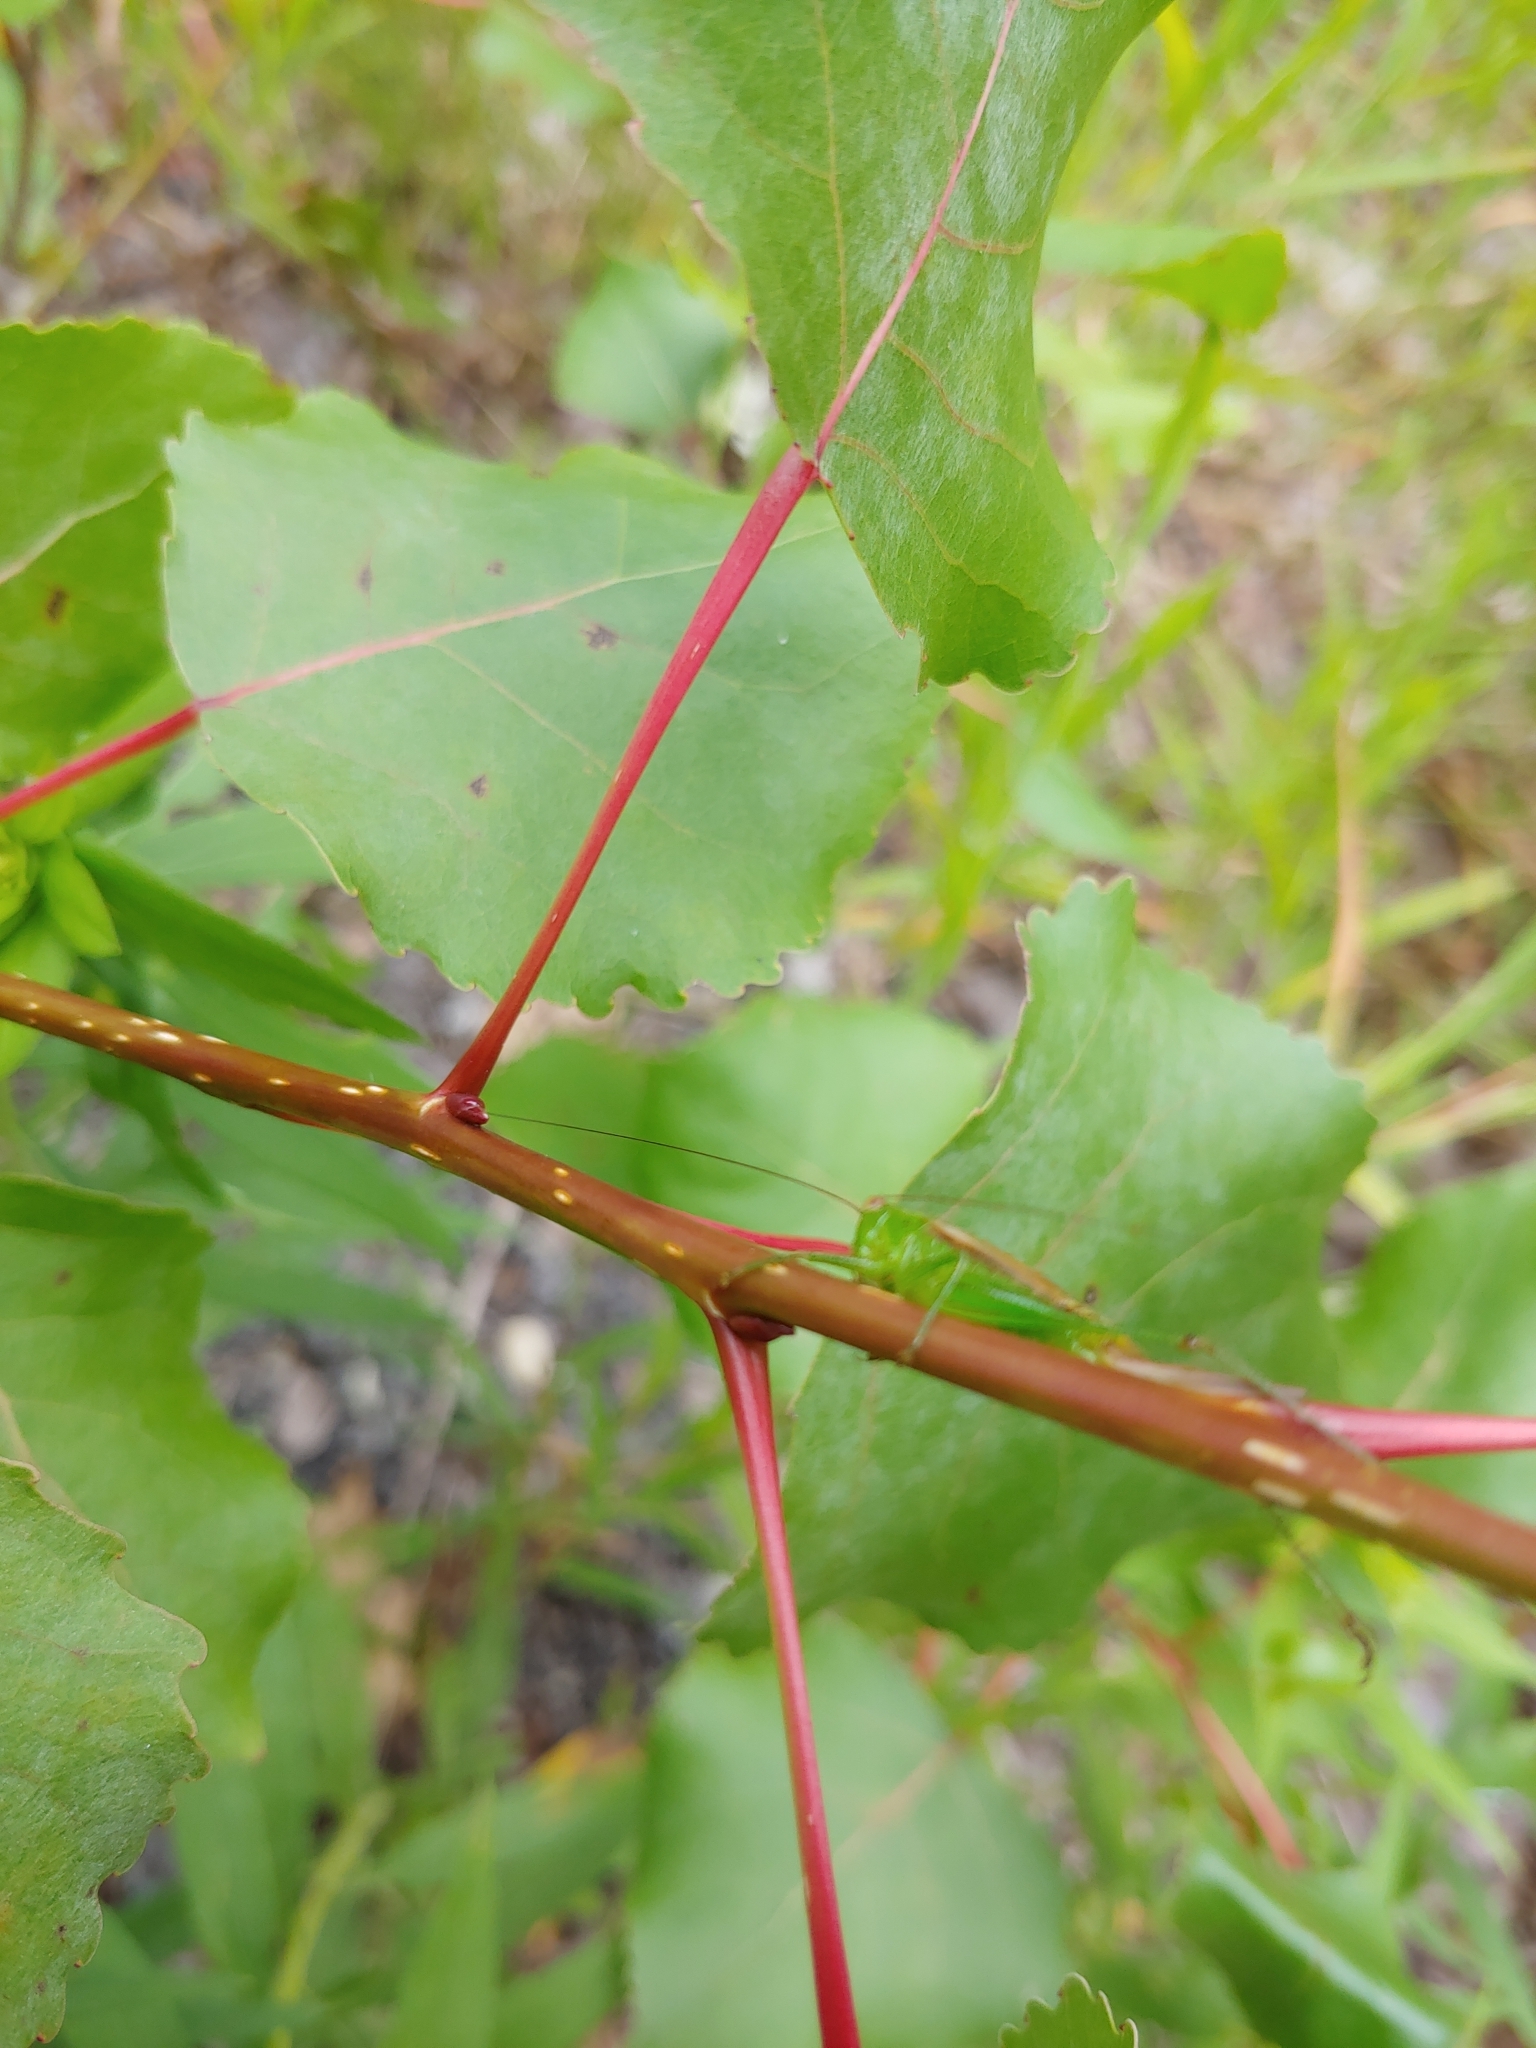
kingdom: Animalia
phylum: Arthropoda
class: Insecta
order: Orthoptera
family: Tettigoniidae
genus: Conocephalus
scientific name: Conocephalus brevipennis
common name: Short-winged meadow katydid
